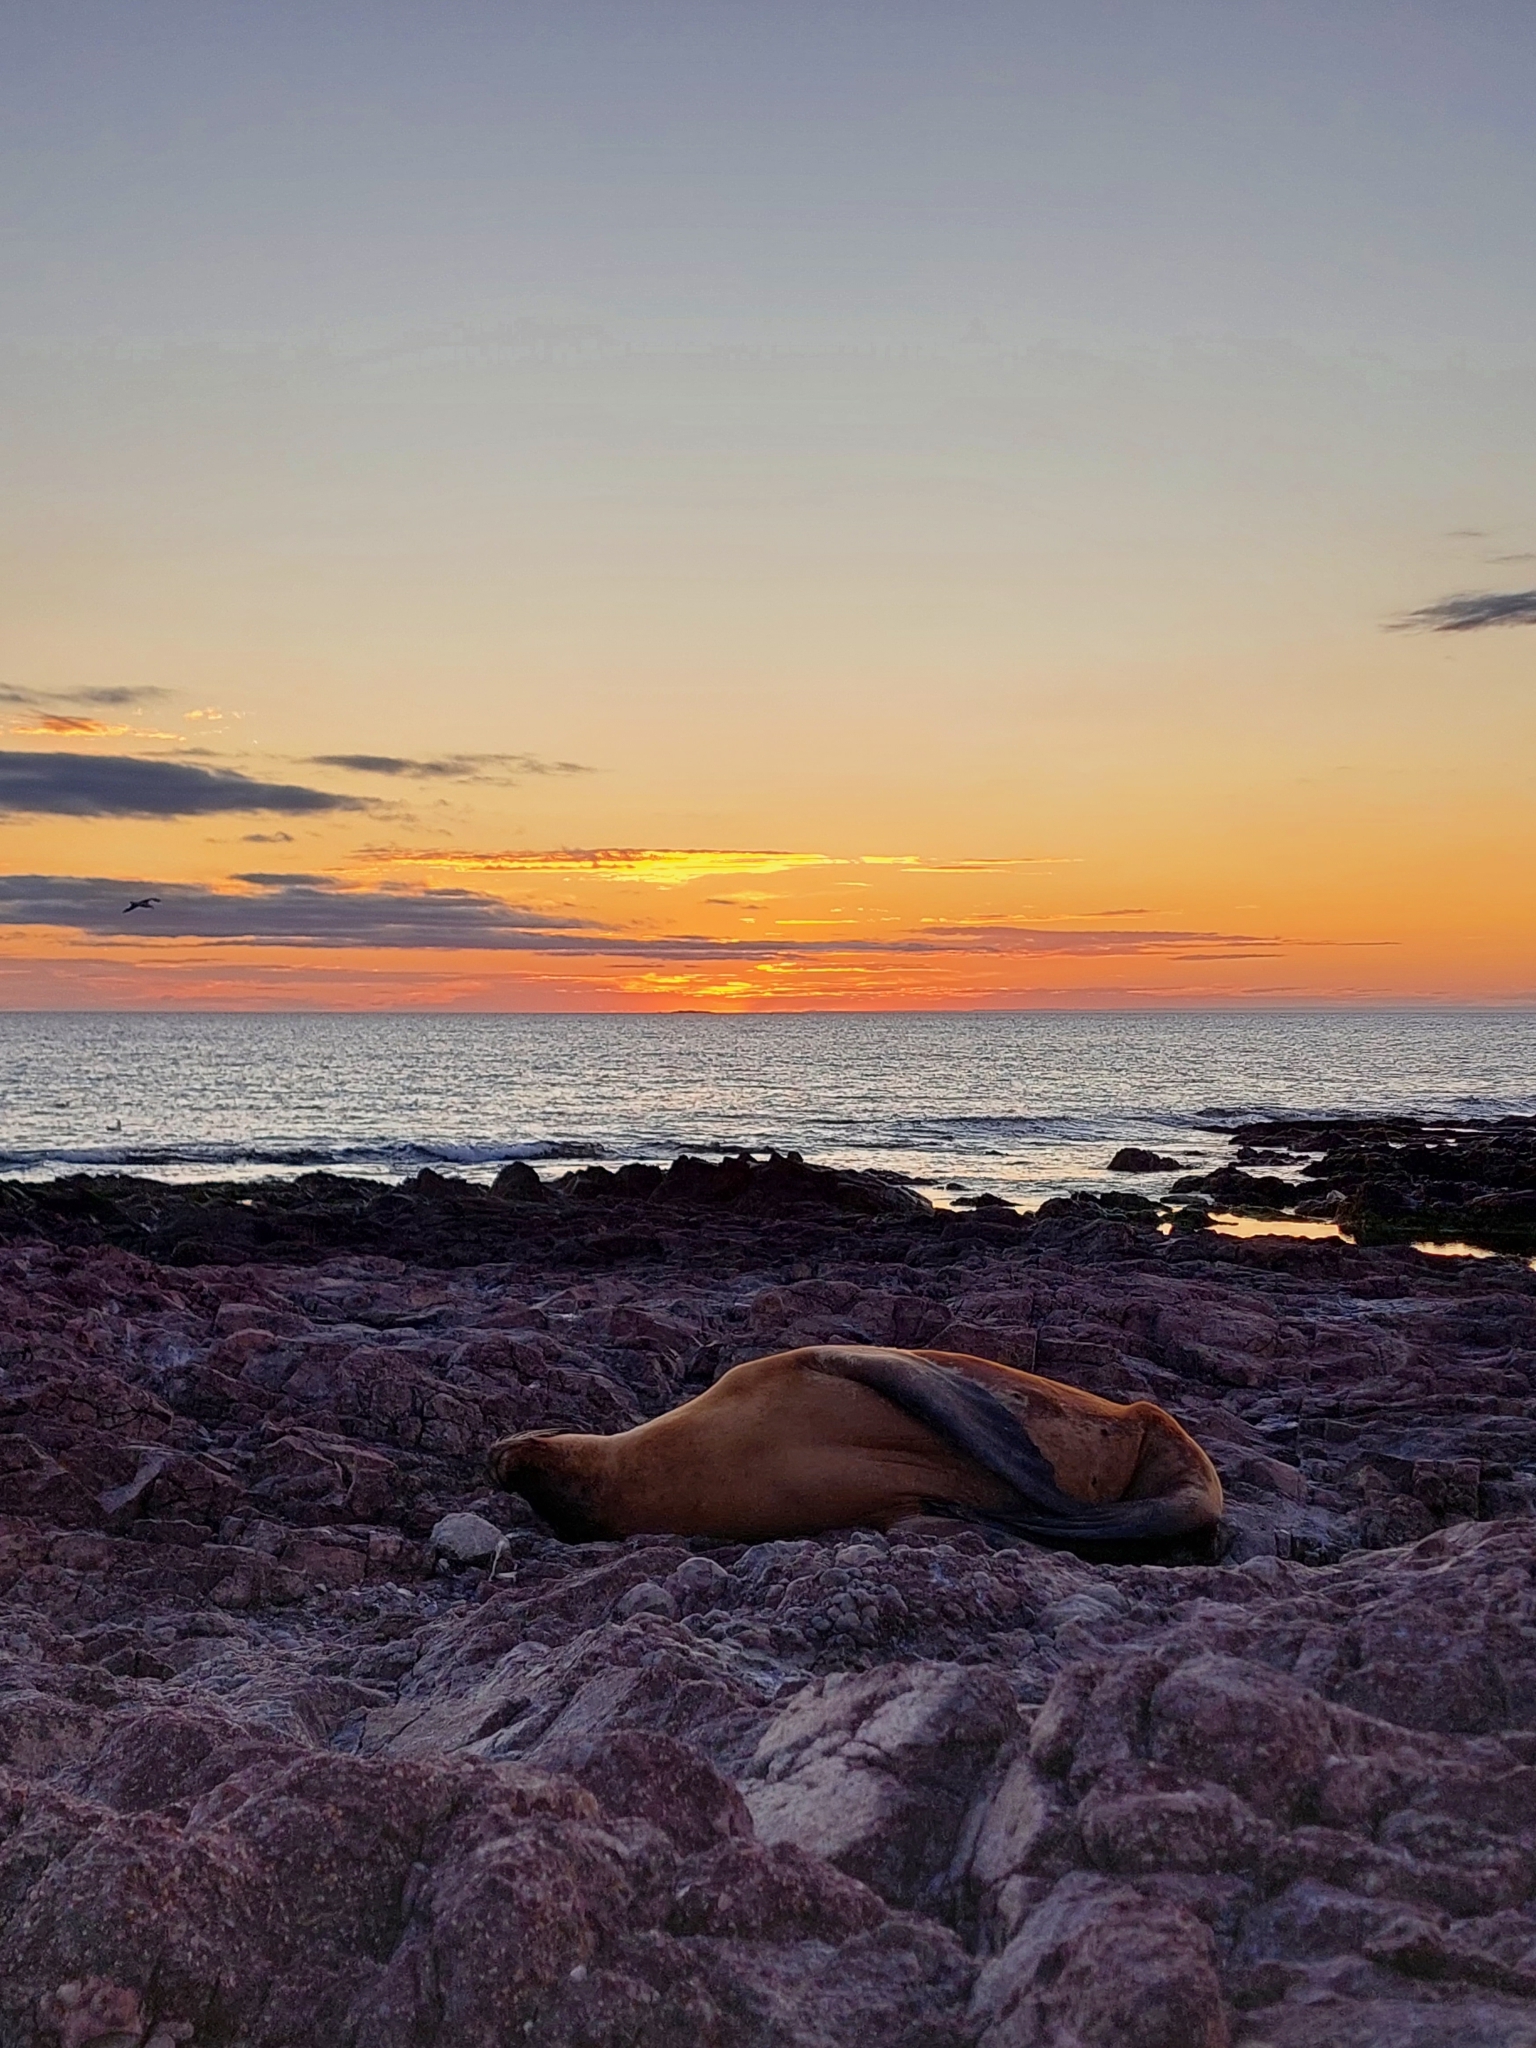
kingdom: Animalia
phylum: Chordata
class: Mammalia
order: Carnivora
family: Otariidae
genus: Otaria
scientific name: Otaria byronia
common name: South american sea lion
